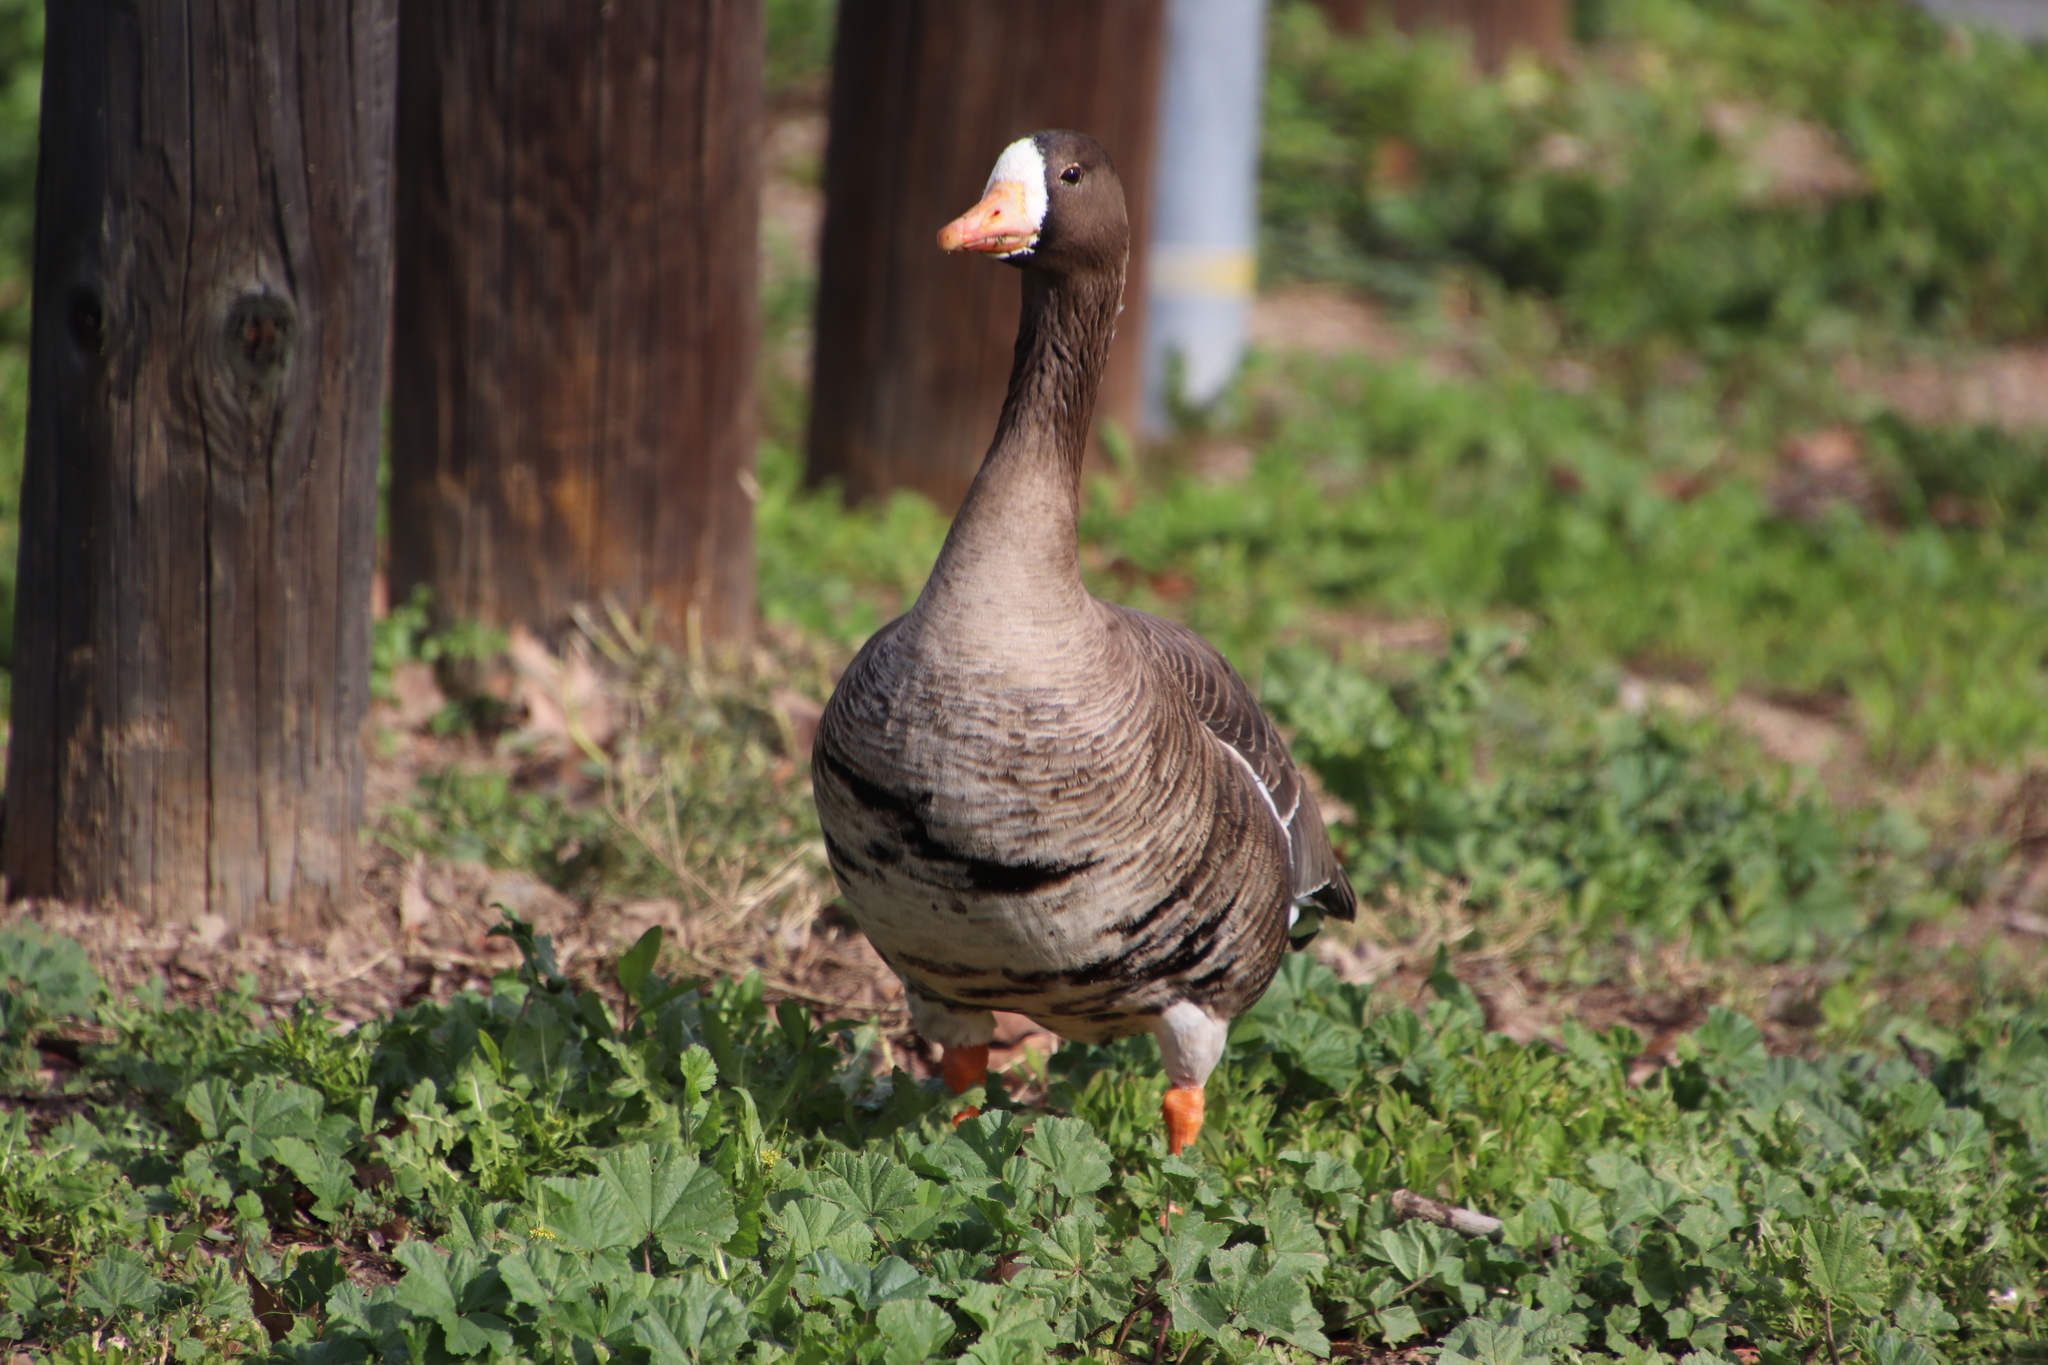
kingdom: Animalia
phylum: Chordata
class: Aves
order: Anseriformes
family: Anatidae
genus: Anser
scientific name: Anser albifrons
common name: Greater white-fronted goose
